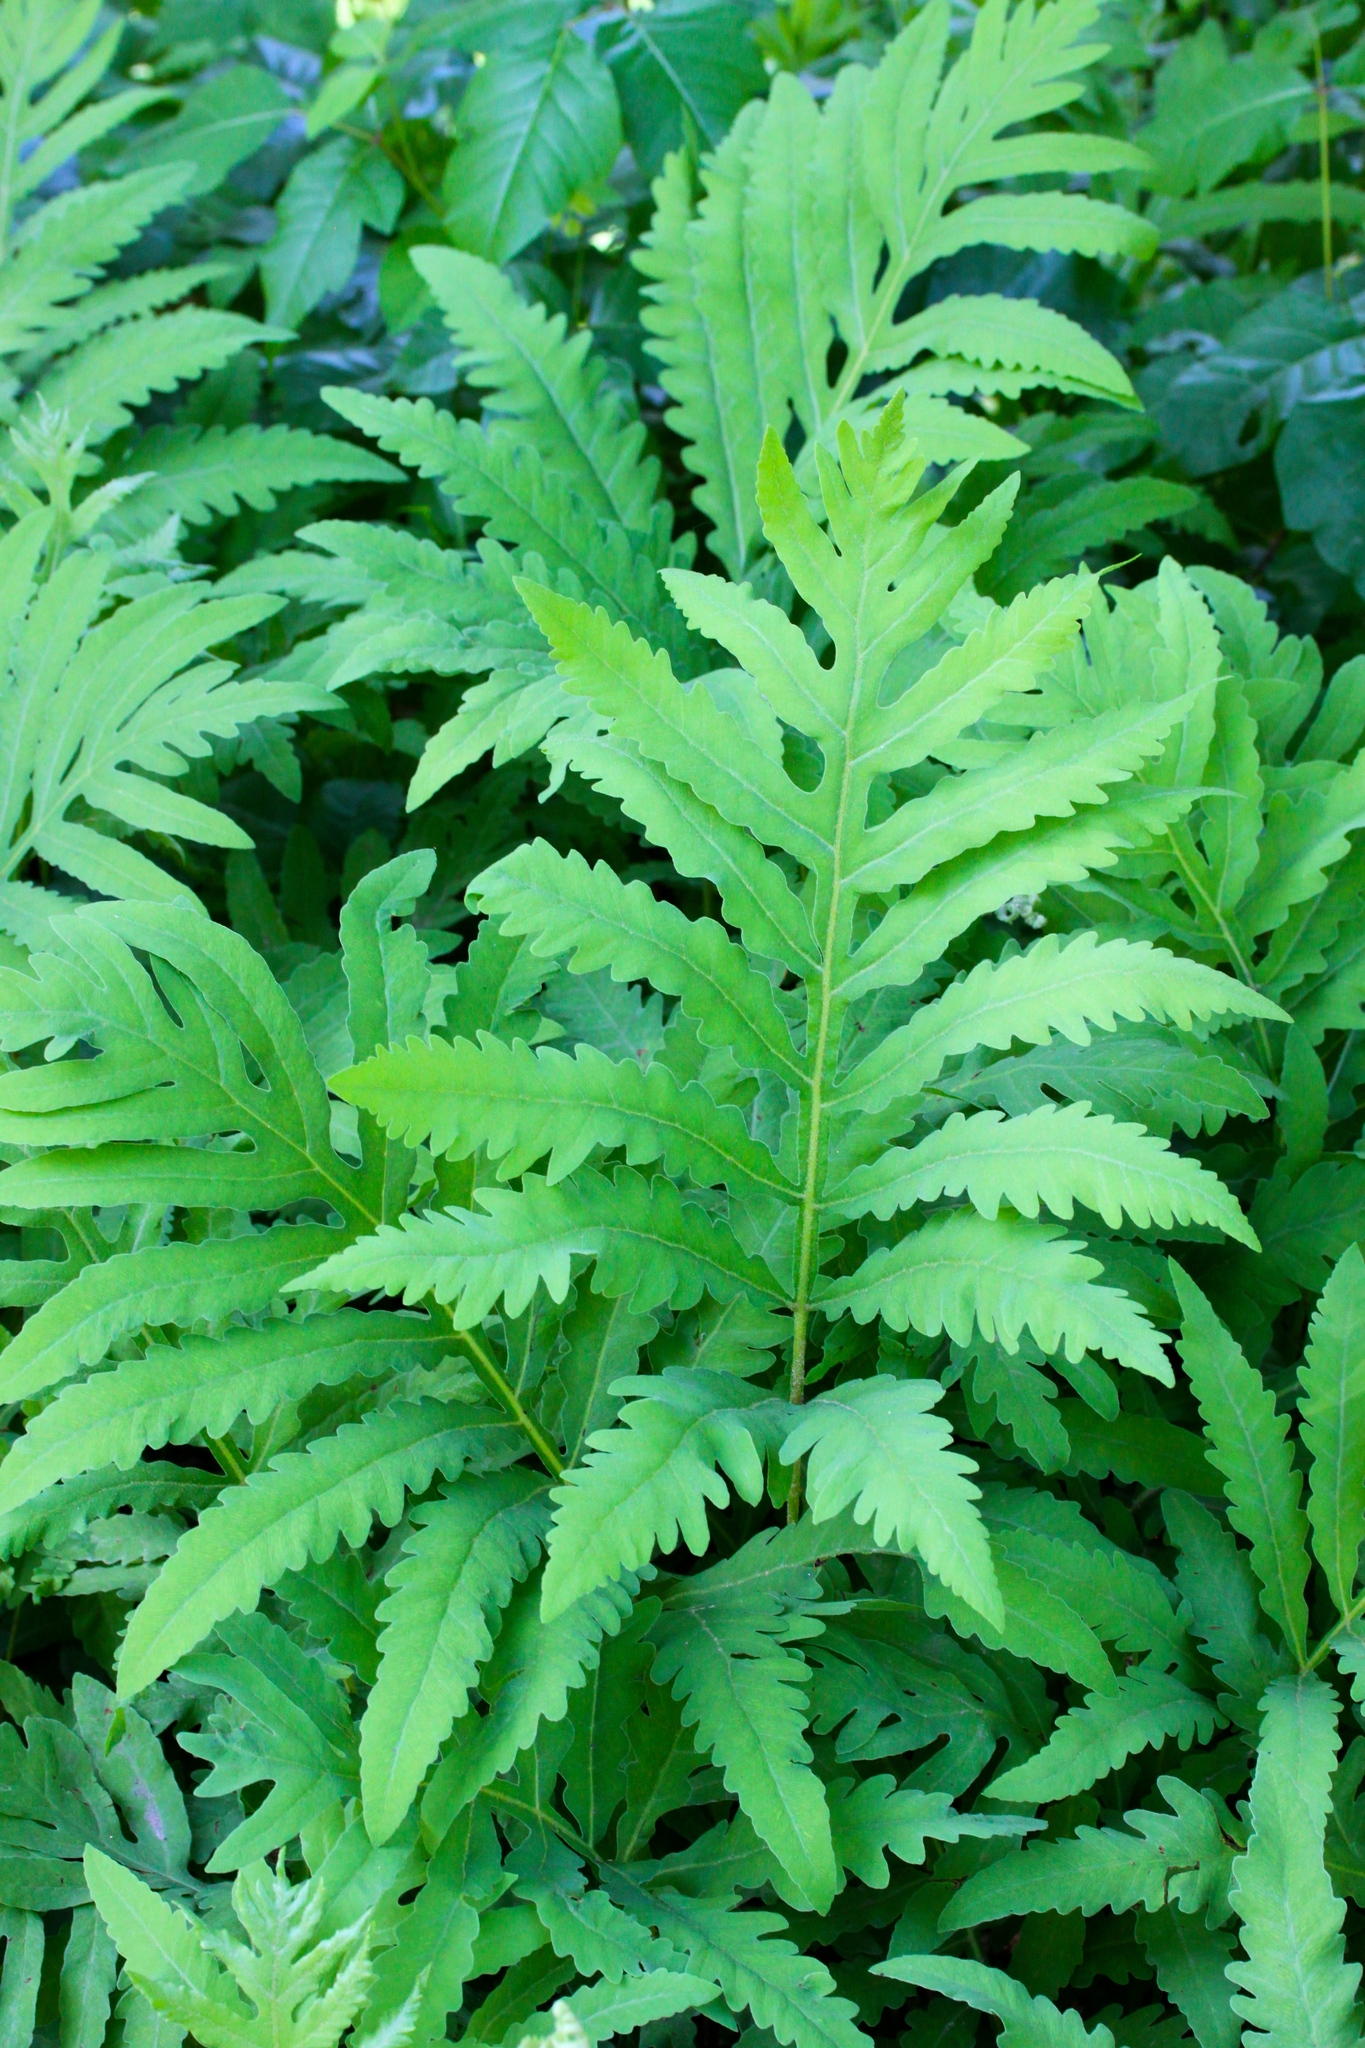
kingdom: Plantae
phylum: Tracheophyta
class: Polypodiopsida
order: Polypodiales
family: Onocleaceae
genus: Onoclea
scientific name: Onoclea sensibilis
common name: Sensitive fern
